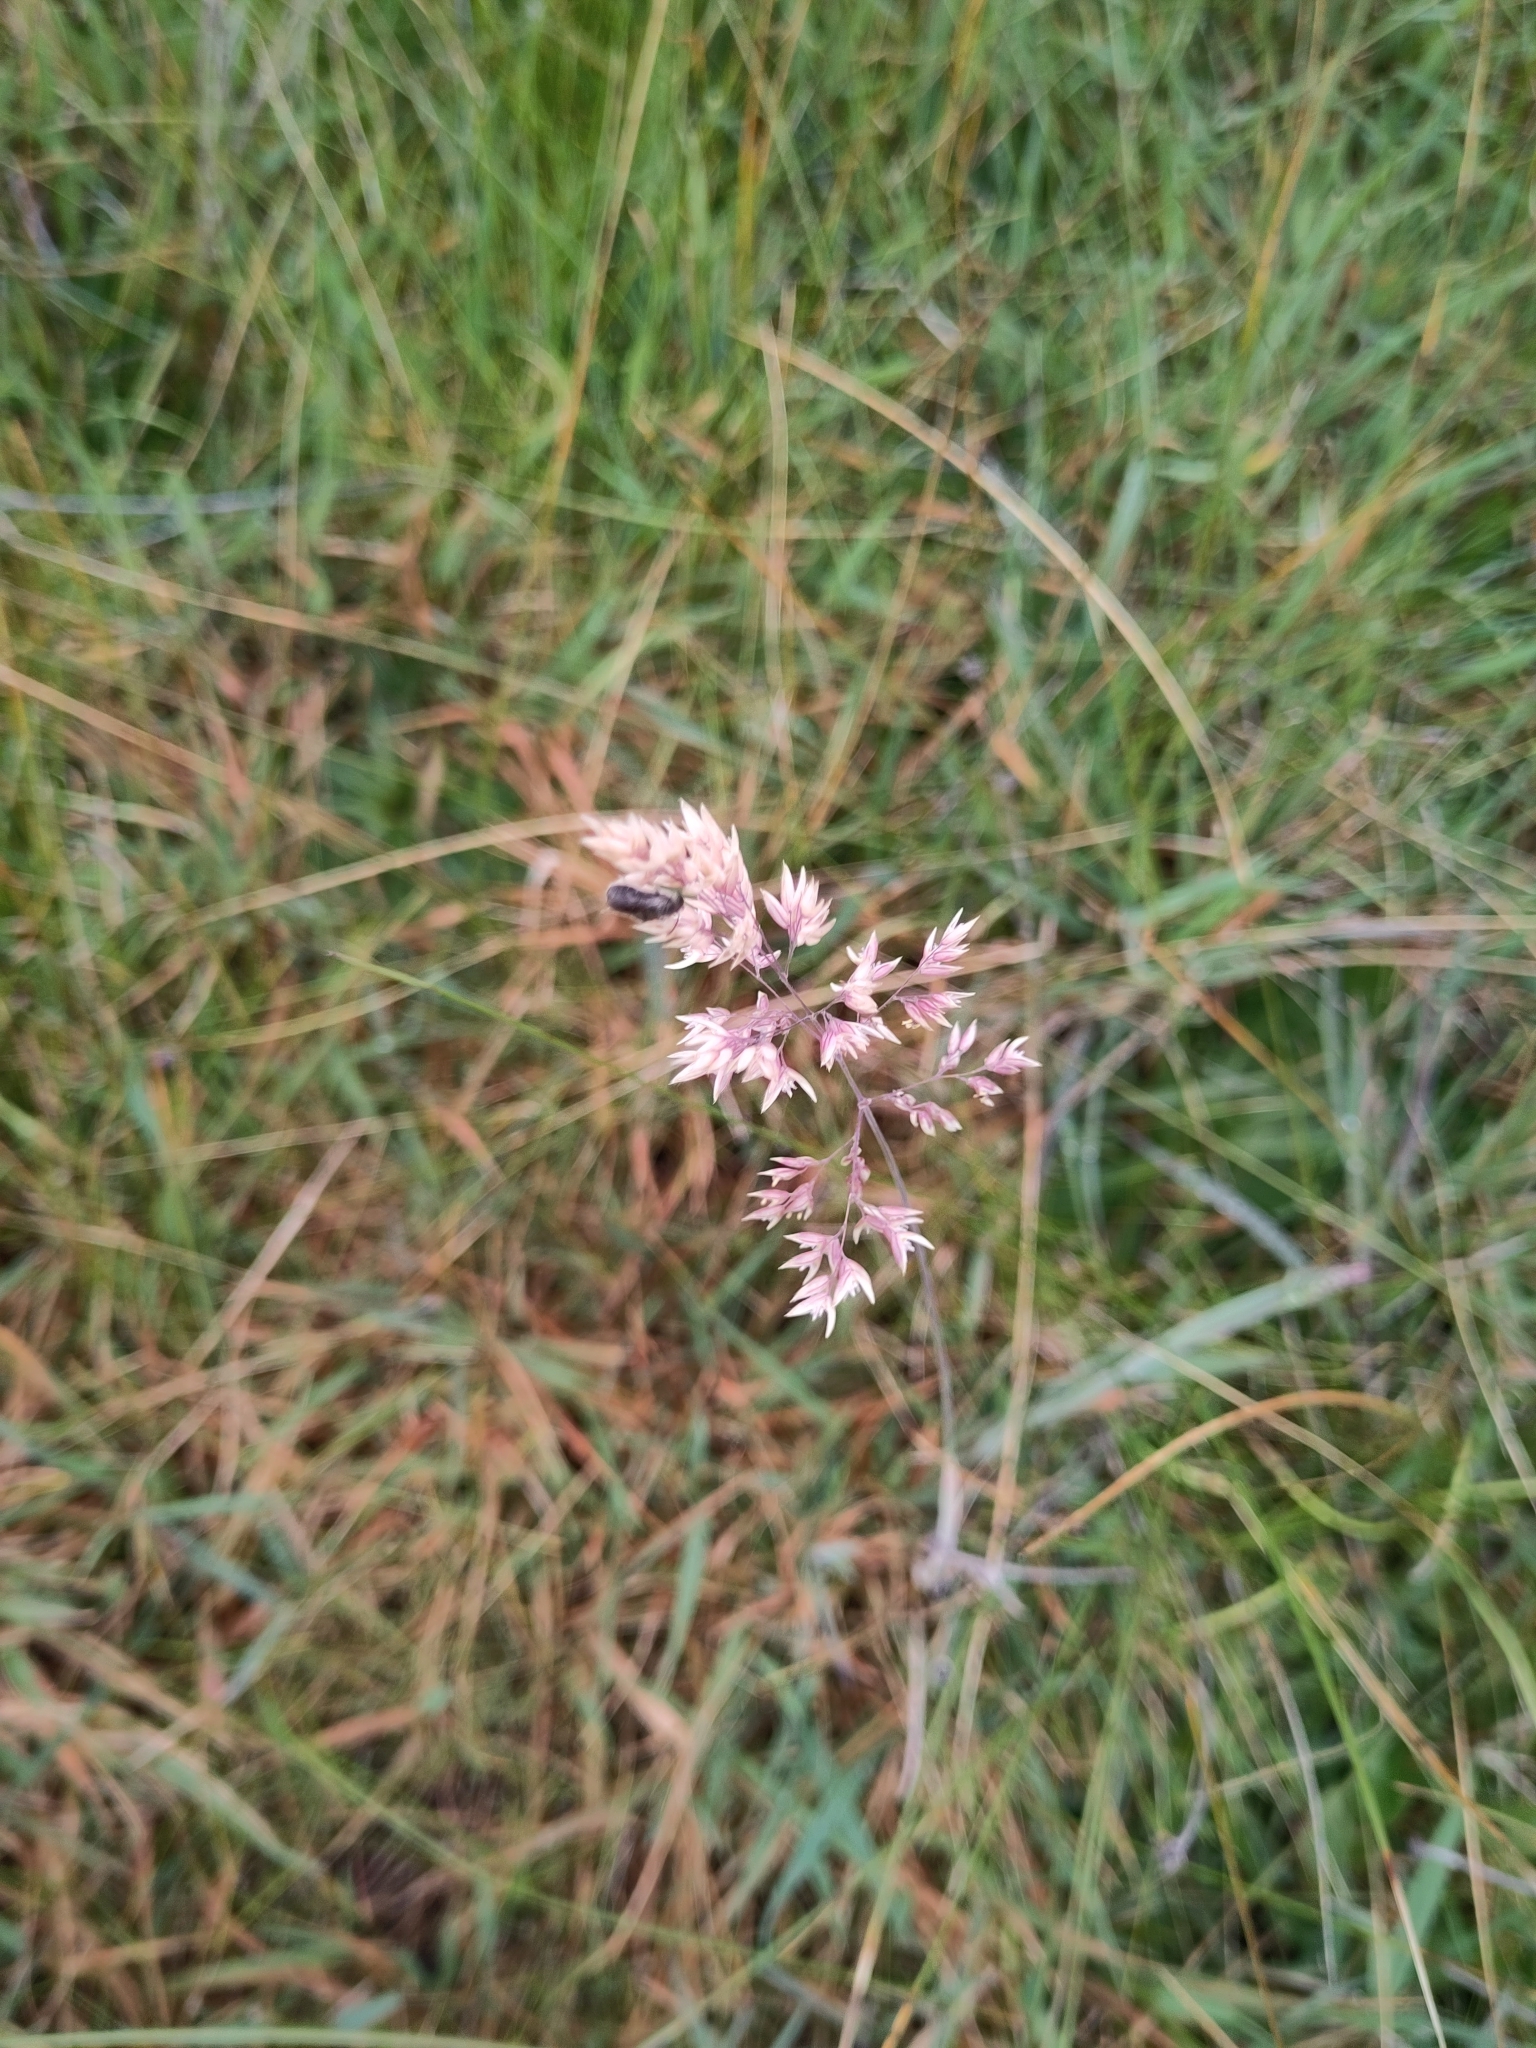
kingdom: Plantae
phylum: Tracheophyta
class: Liliopsida
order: Poales
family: Poaceae
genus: Holcus
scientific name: Holcus lanatus
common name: Yorkshire-fog
